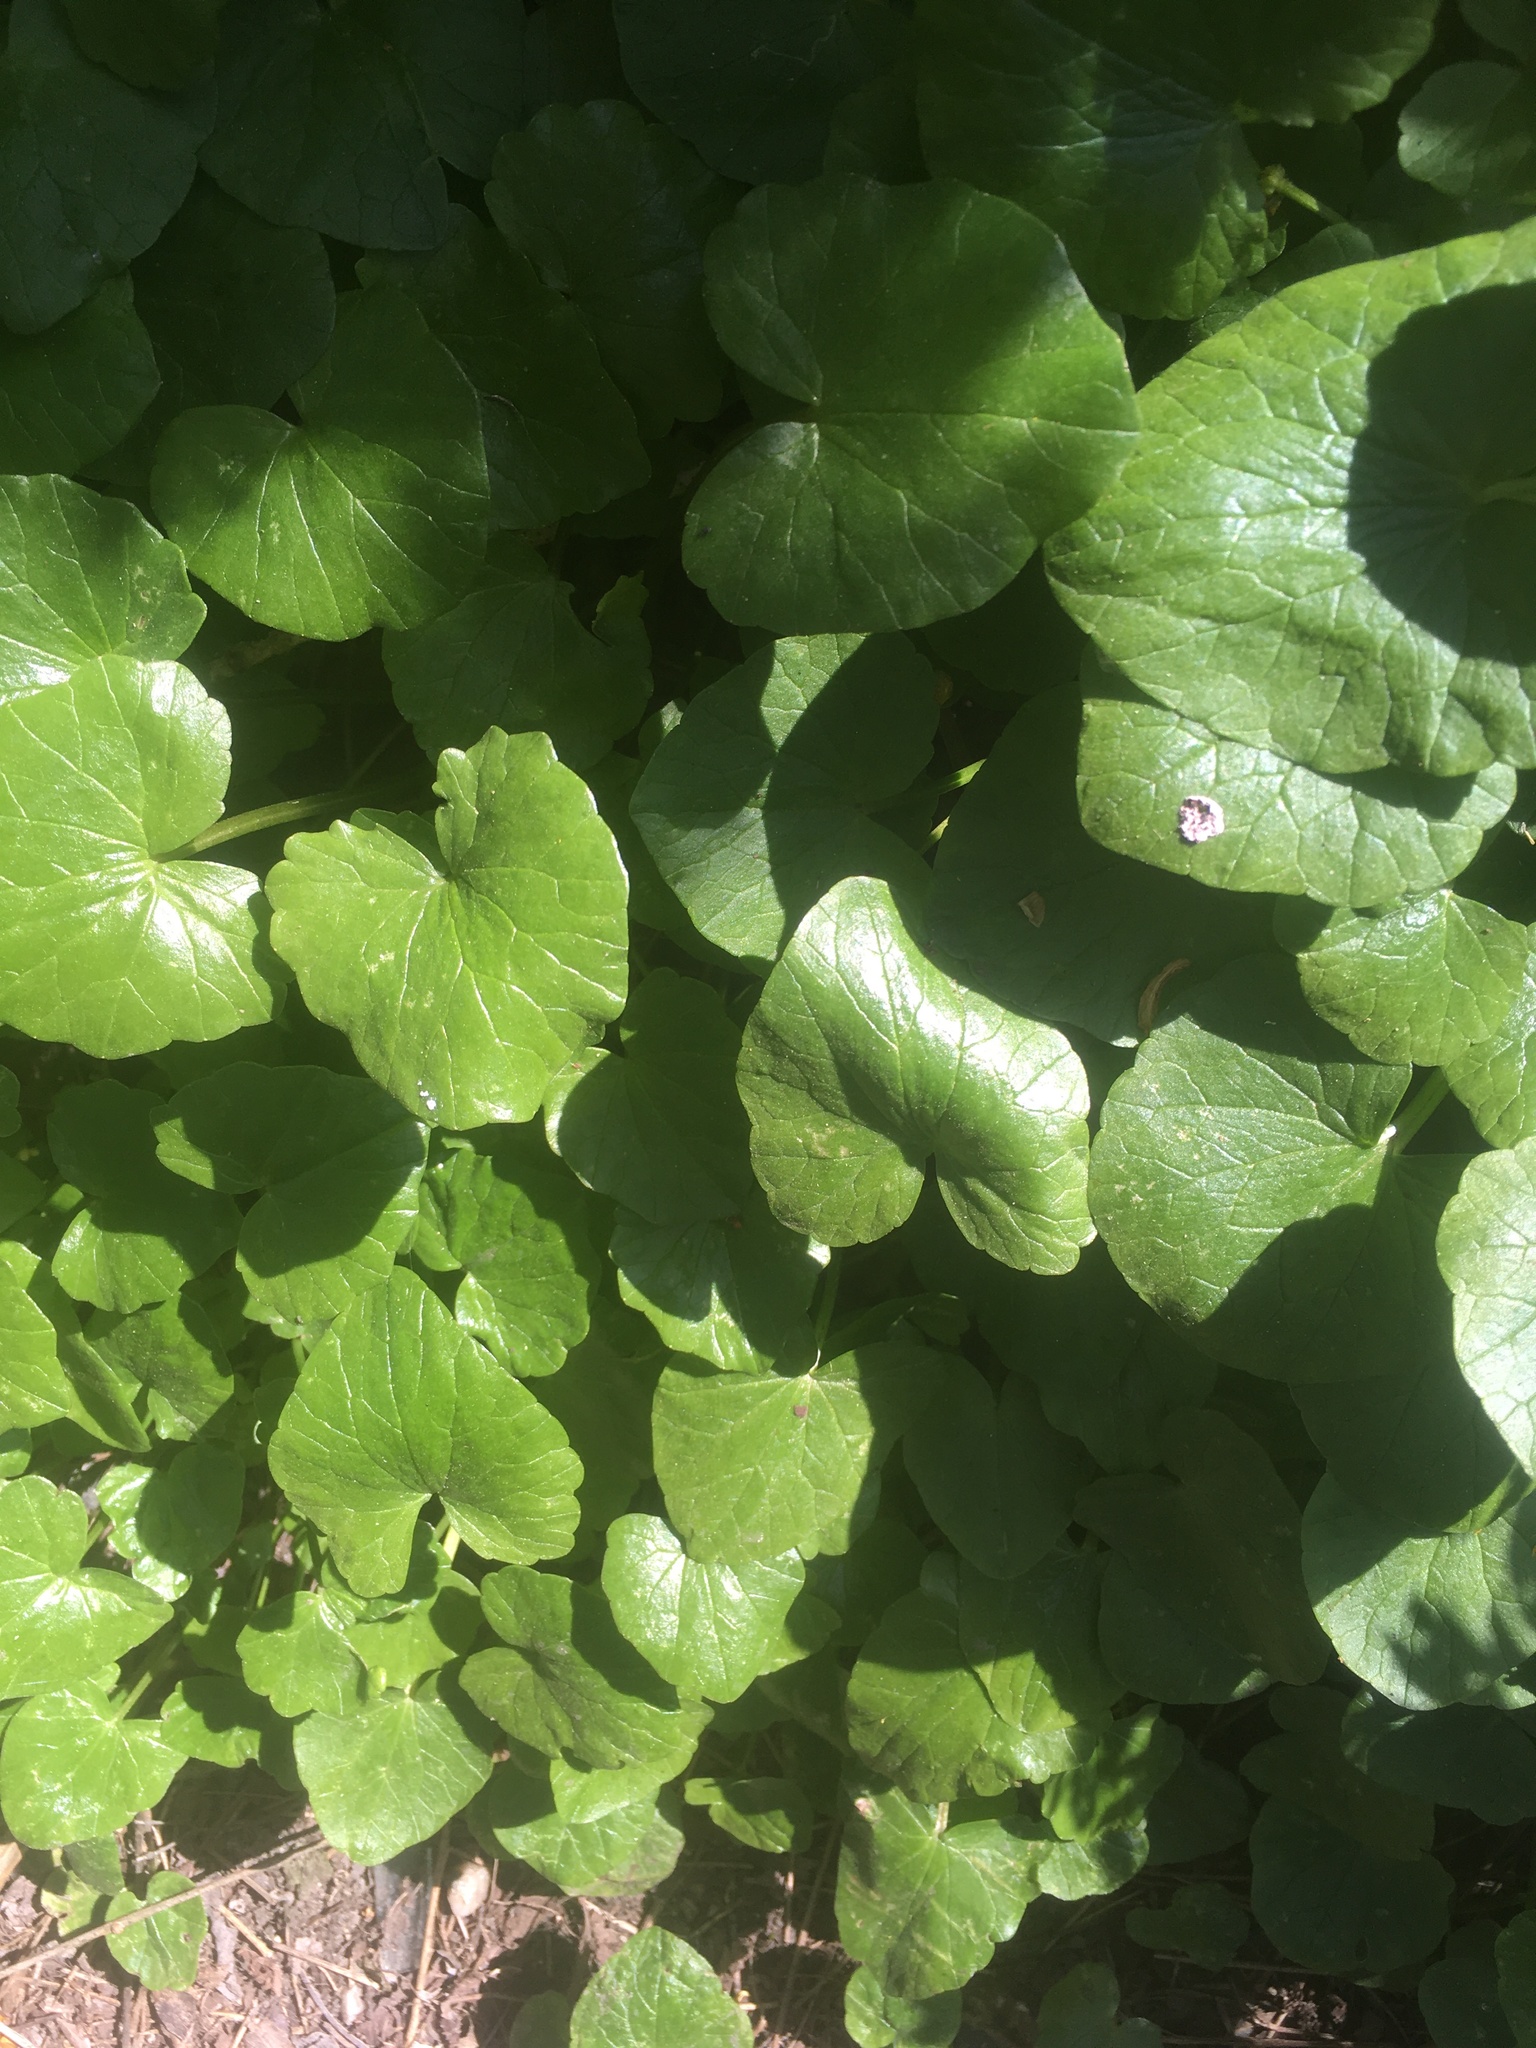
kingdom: Plantae
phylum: Tracheophyta
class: Magnoliopsida
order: Ranunculales
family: Ranunculaceae
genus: Ficaria
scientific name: Ficaria verna
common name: Lesser celandine
